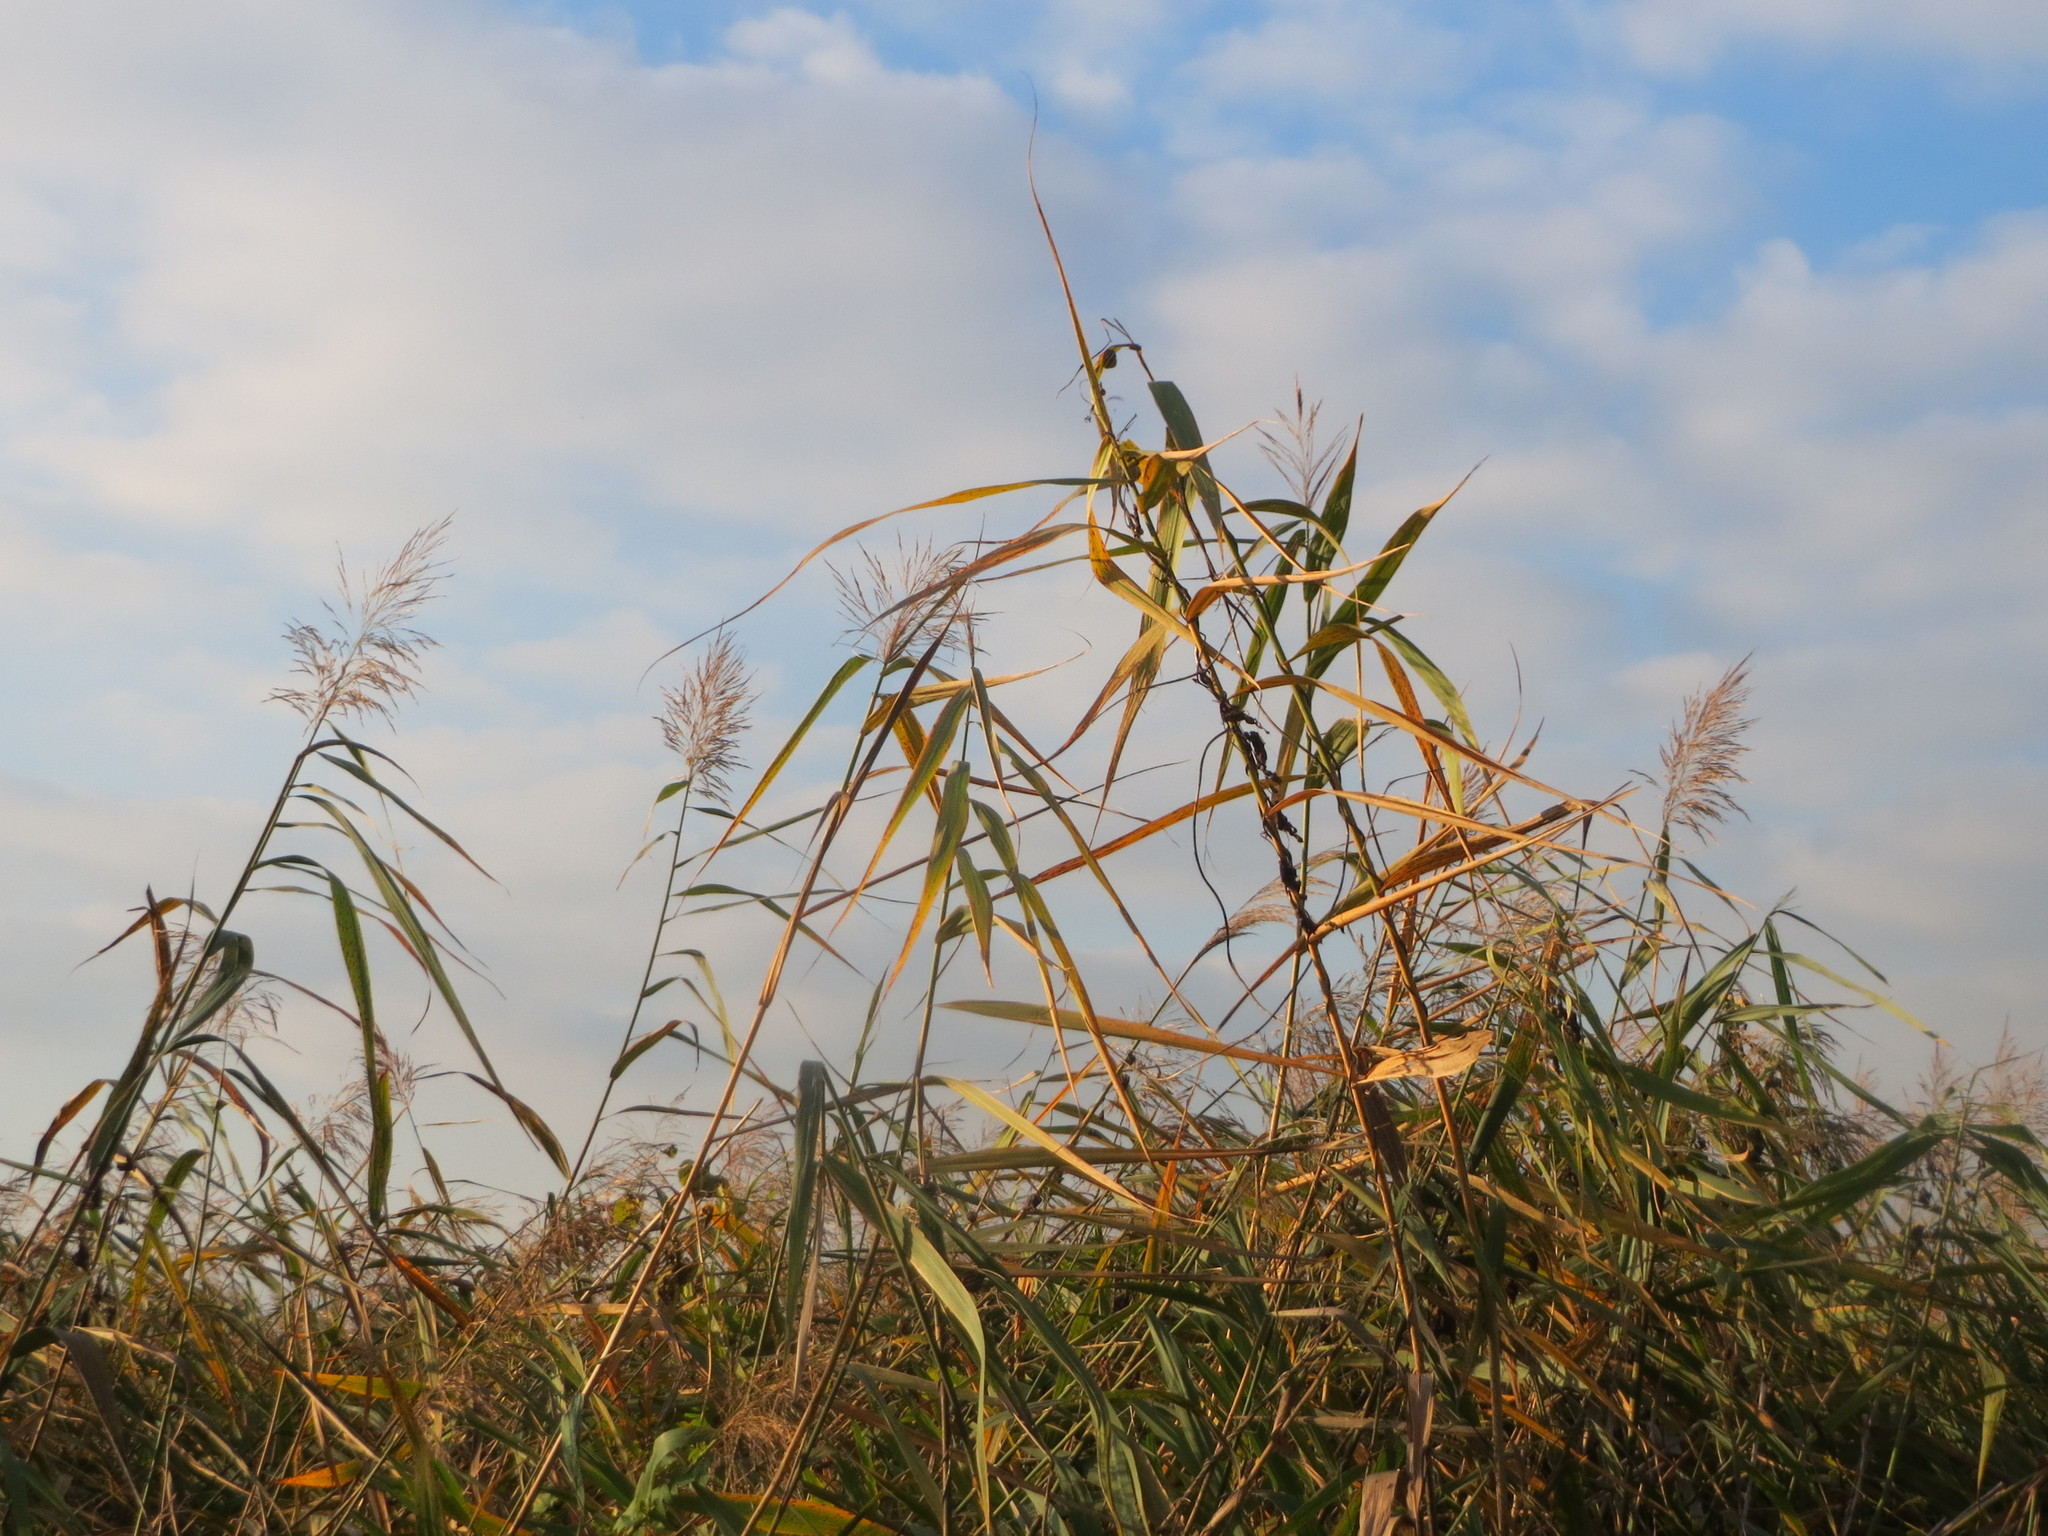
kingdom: Plantae
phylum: Tracheophyta
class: Liliopsida
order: Poales
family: Poaceae
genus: Phragmites
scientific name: Phragmites australis
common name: Common reed
